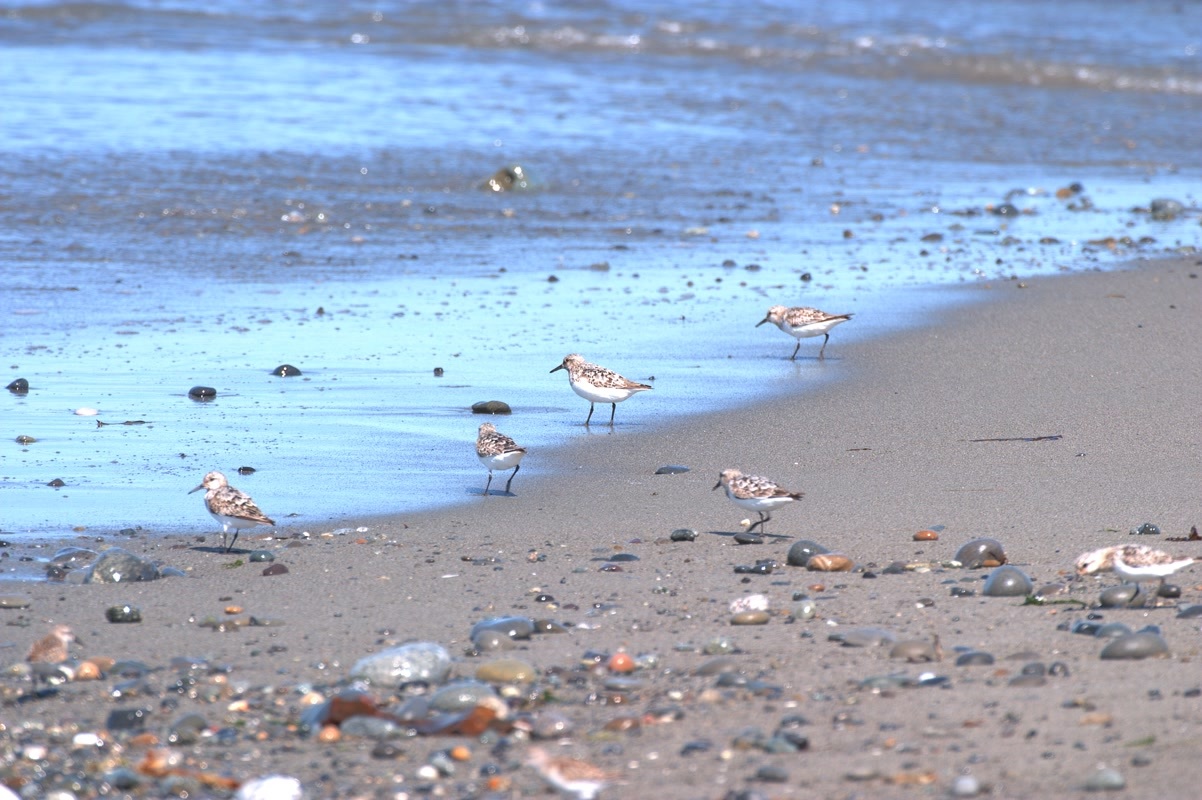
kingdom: Animalia
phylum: Chordata
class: Aves
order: Charadriiformes
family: Scolopacidae
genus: Calidris
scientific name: Calidris alba
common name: Sanderling
